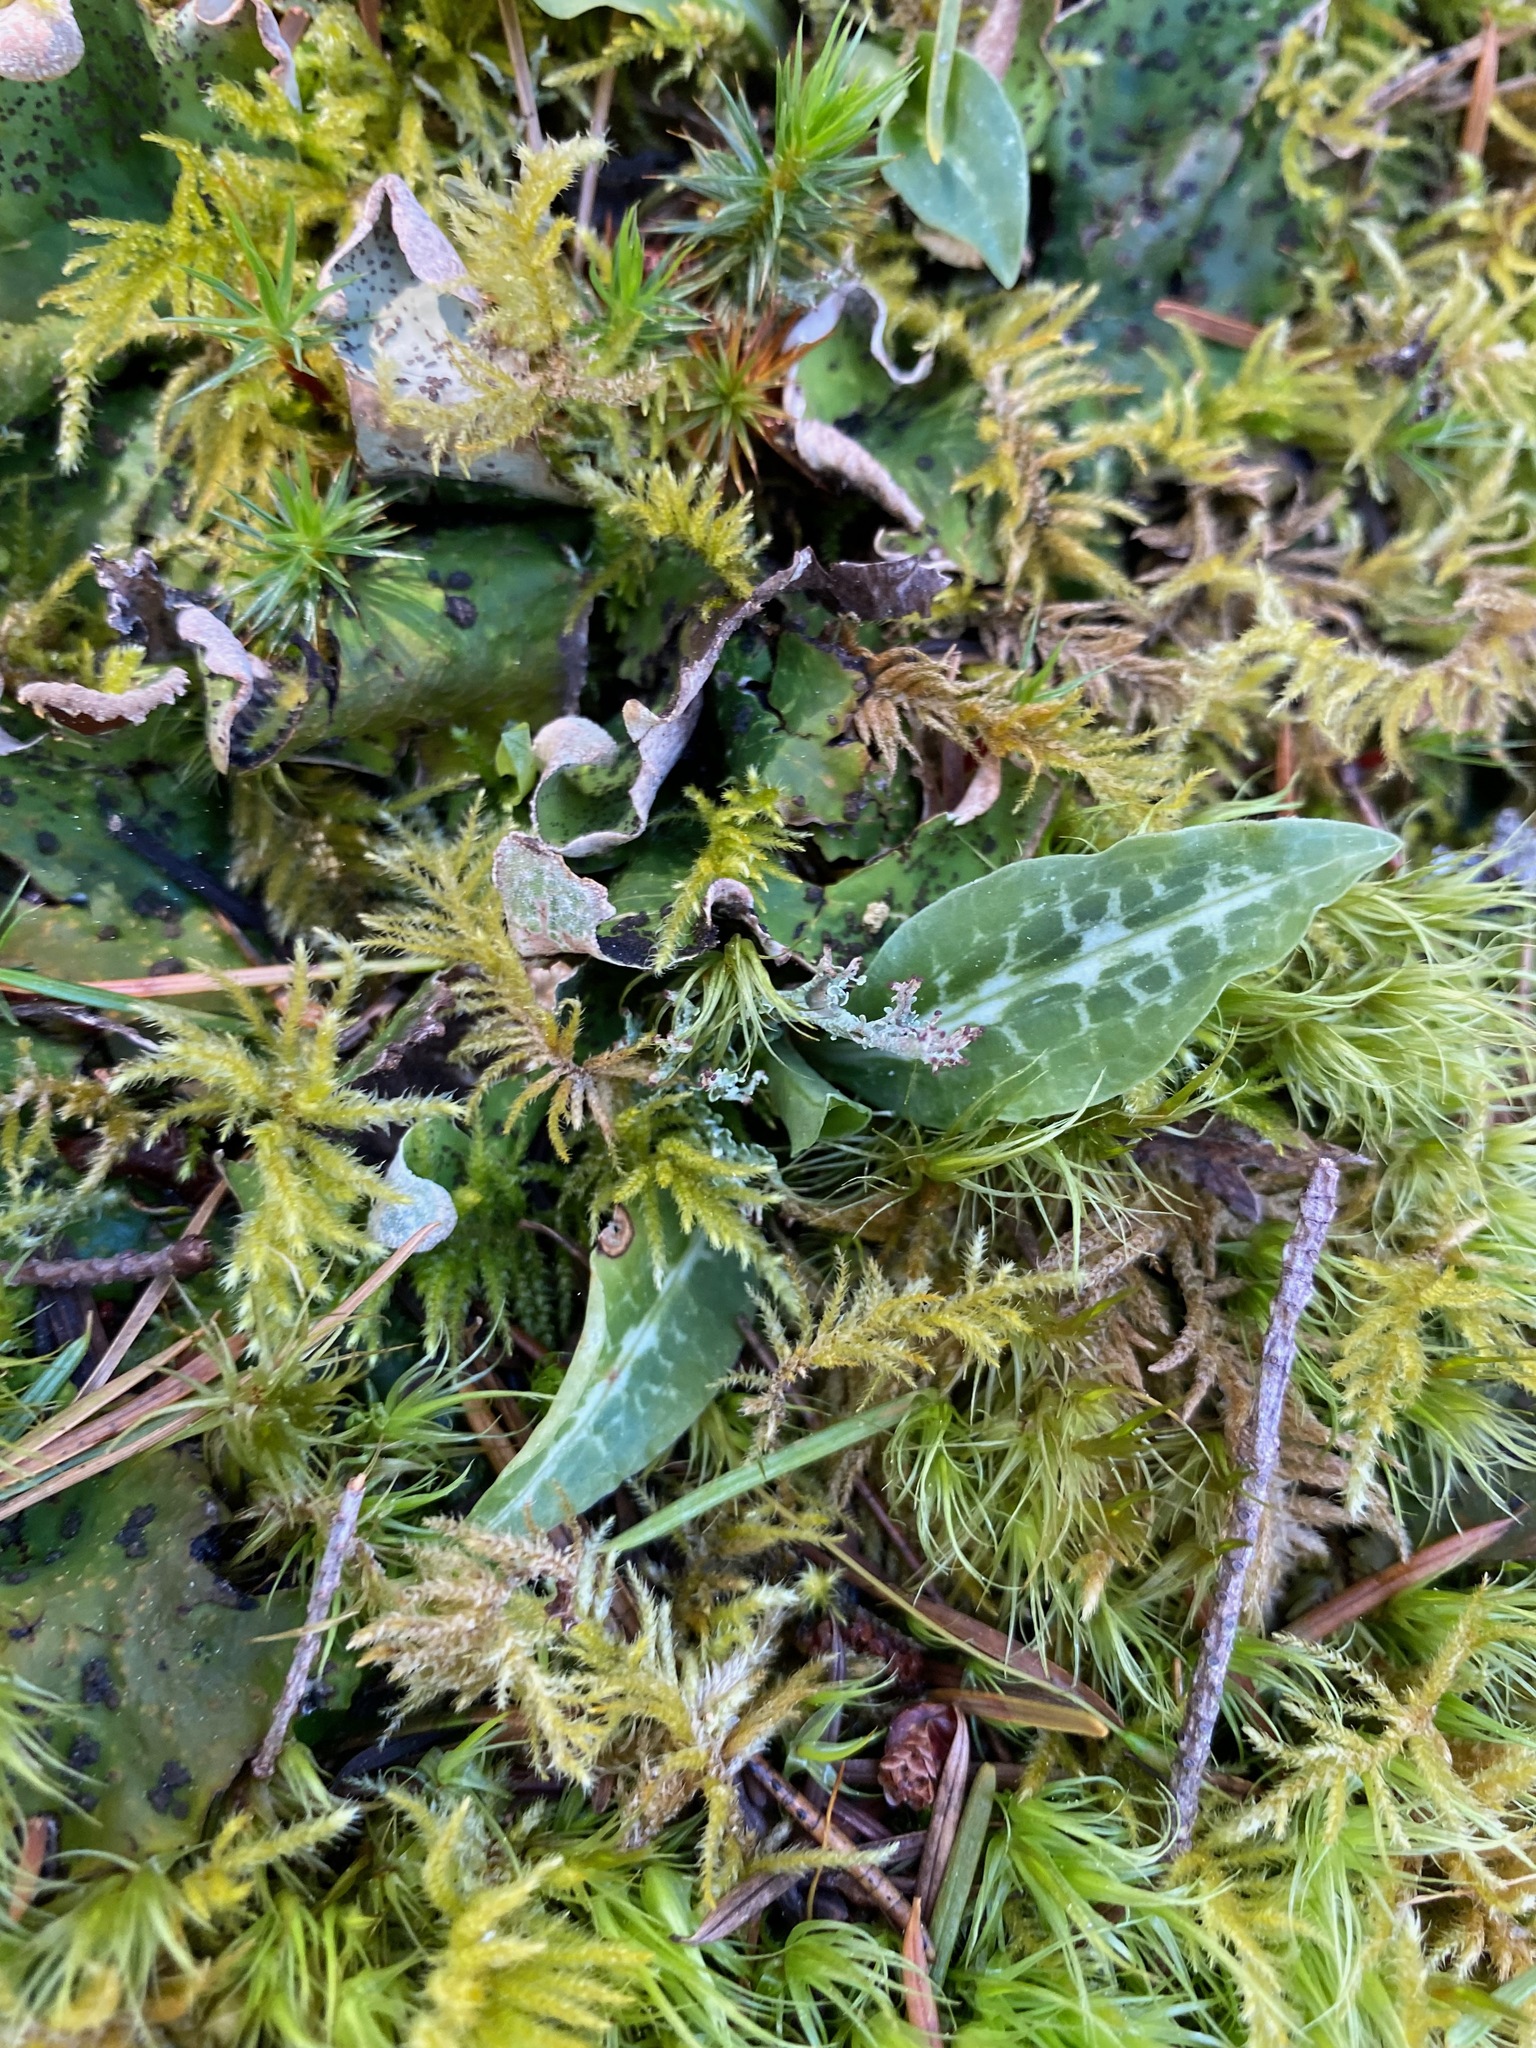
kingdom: Plantae
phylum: Tracheophyta
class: Liliopsida
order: Asparagales
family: Orchidaceae
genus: Goodyera
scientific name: Goodyera oblongifolia
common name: Giant rattlesnake-plantain
